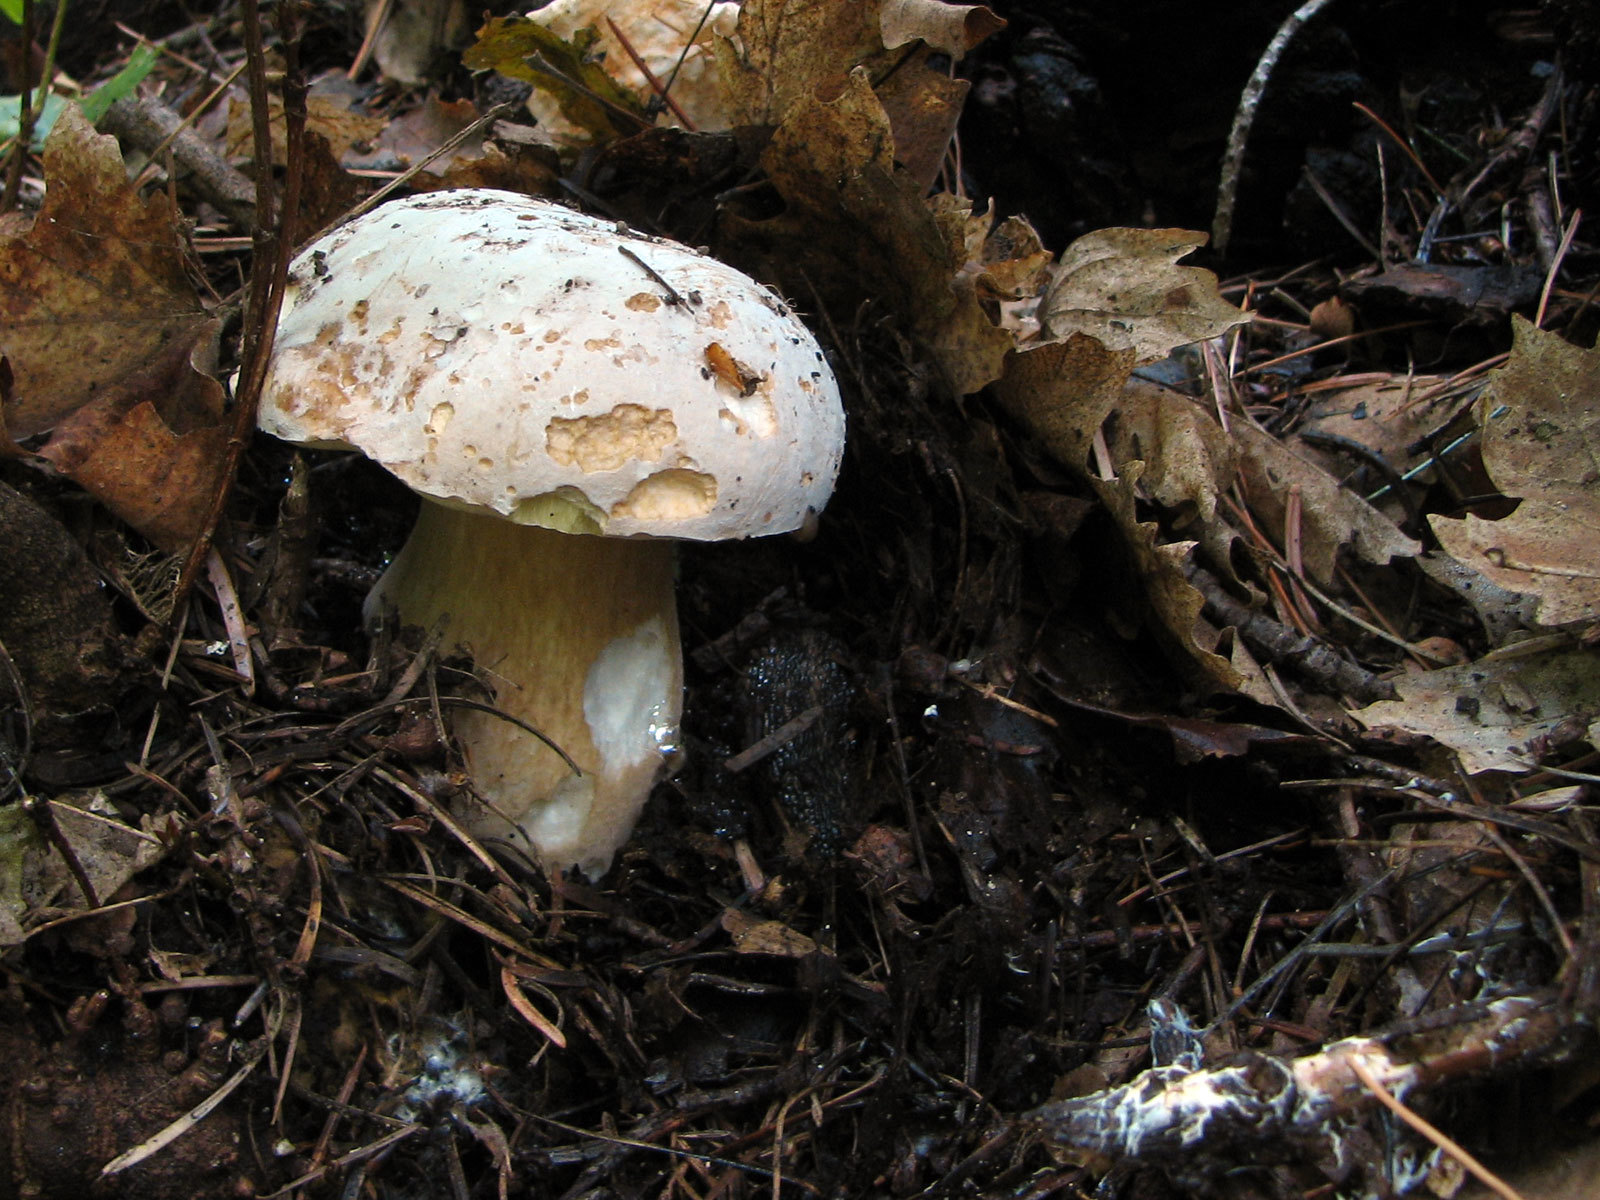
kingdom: Fungi
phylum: Basidiomycota
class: Agaricomycetes
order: Boletales
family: Boletaceae
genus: Boletus
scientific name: Boletus barrowsii
